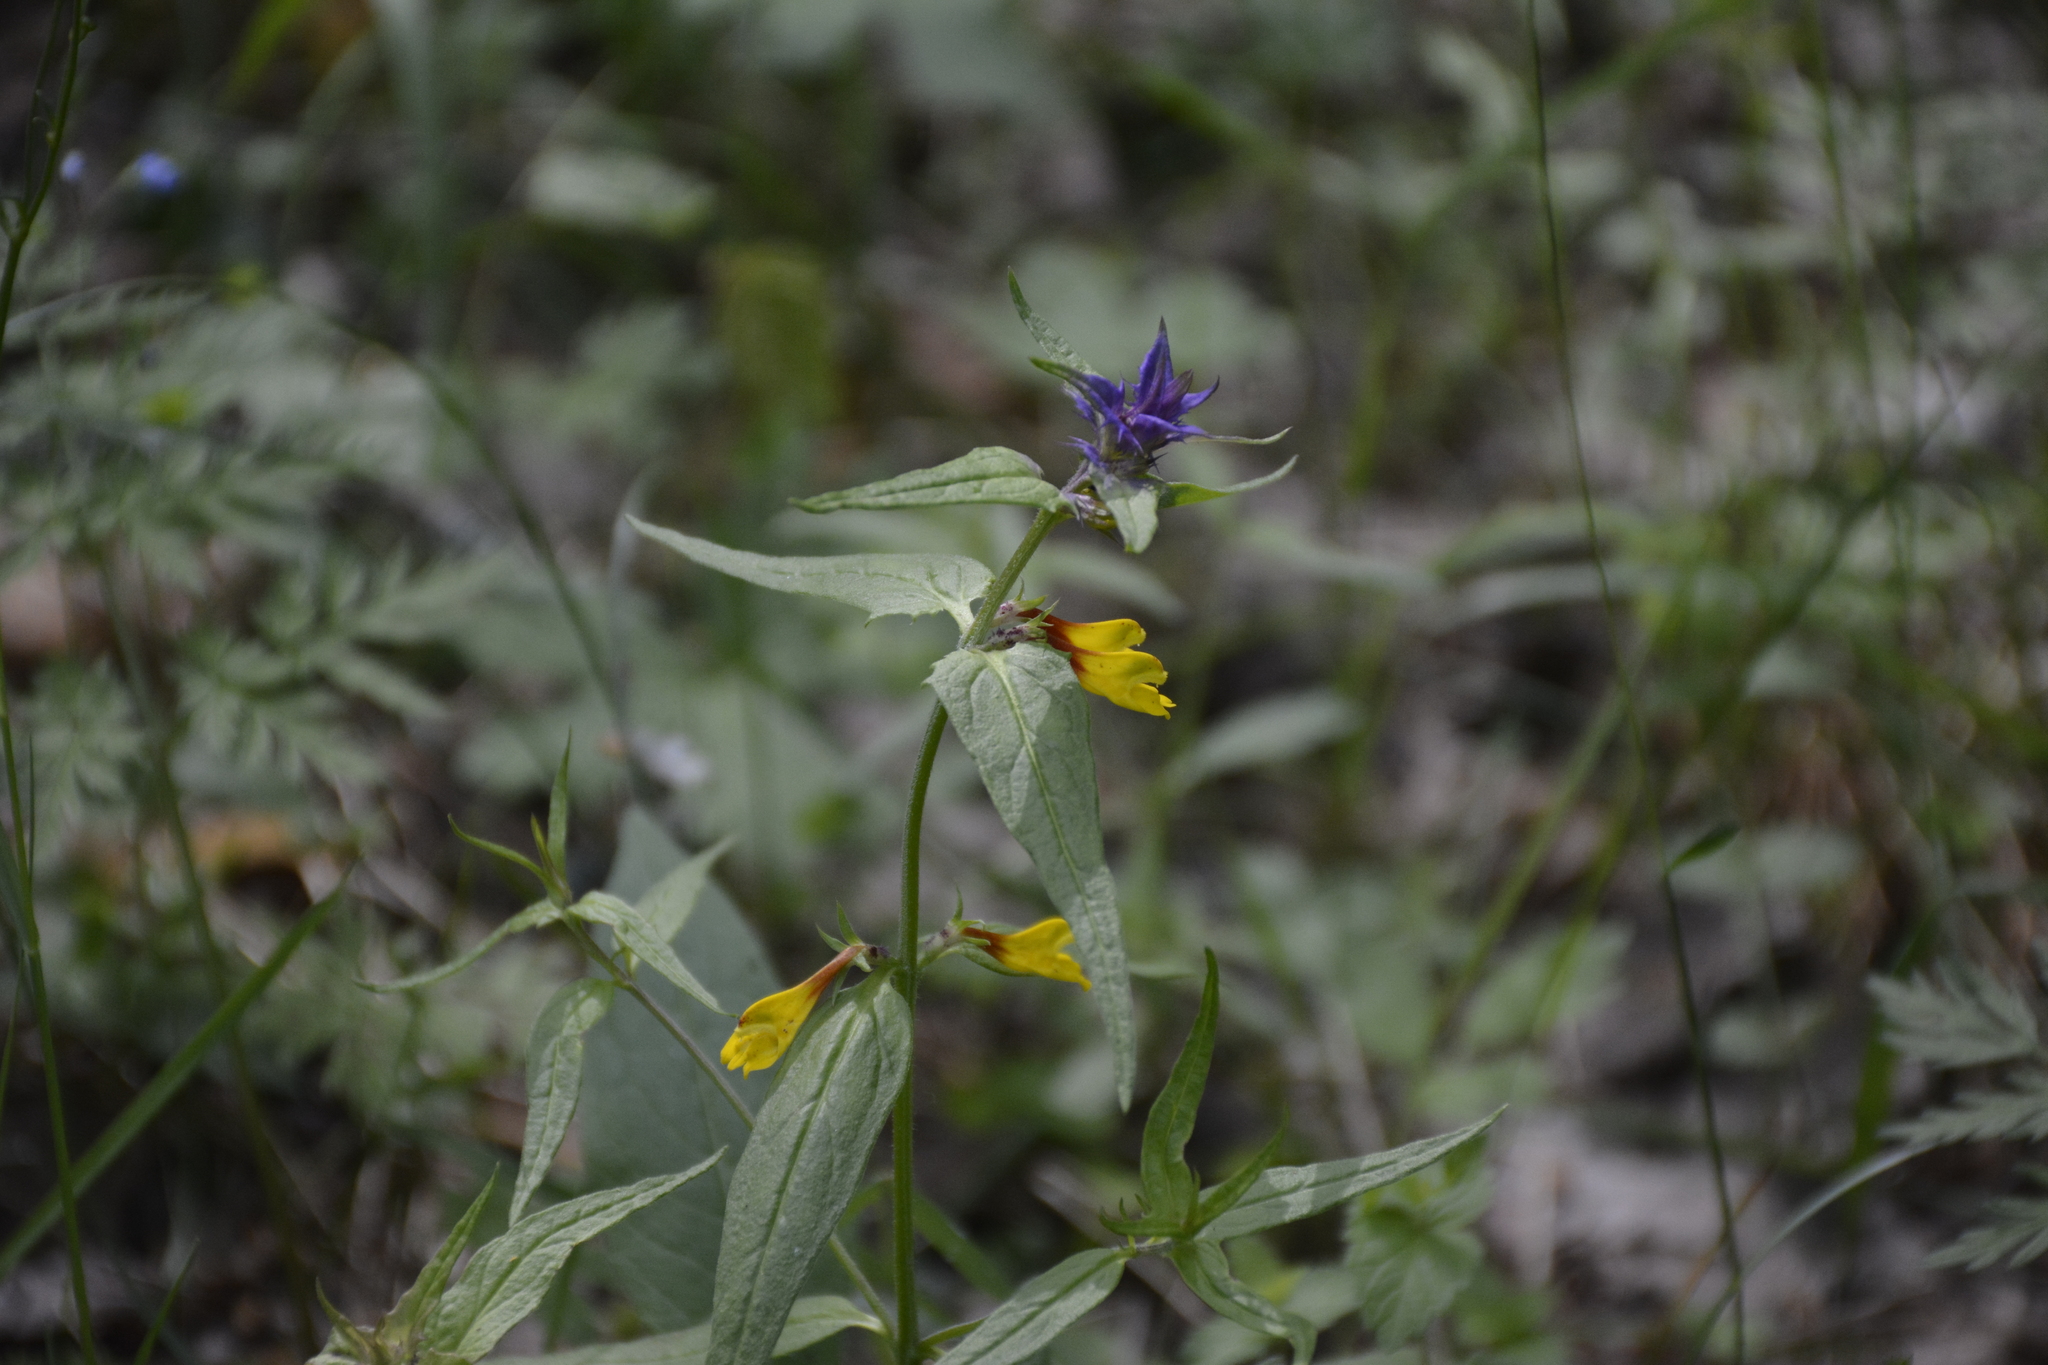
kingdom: Plantae
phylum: Tracheophyta
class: Magnoliopsida
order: Lamiales
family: Orobanchaceae
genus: Melampyrum
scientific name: Melampyrum nemorosum
